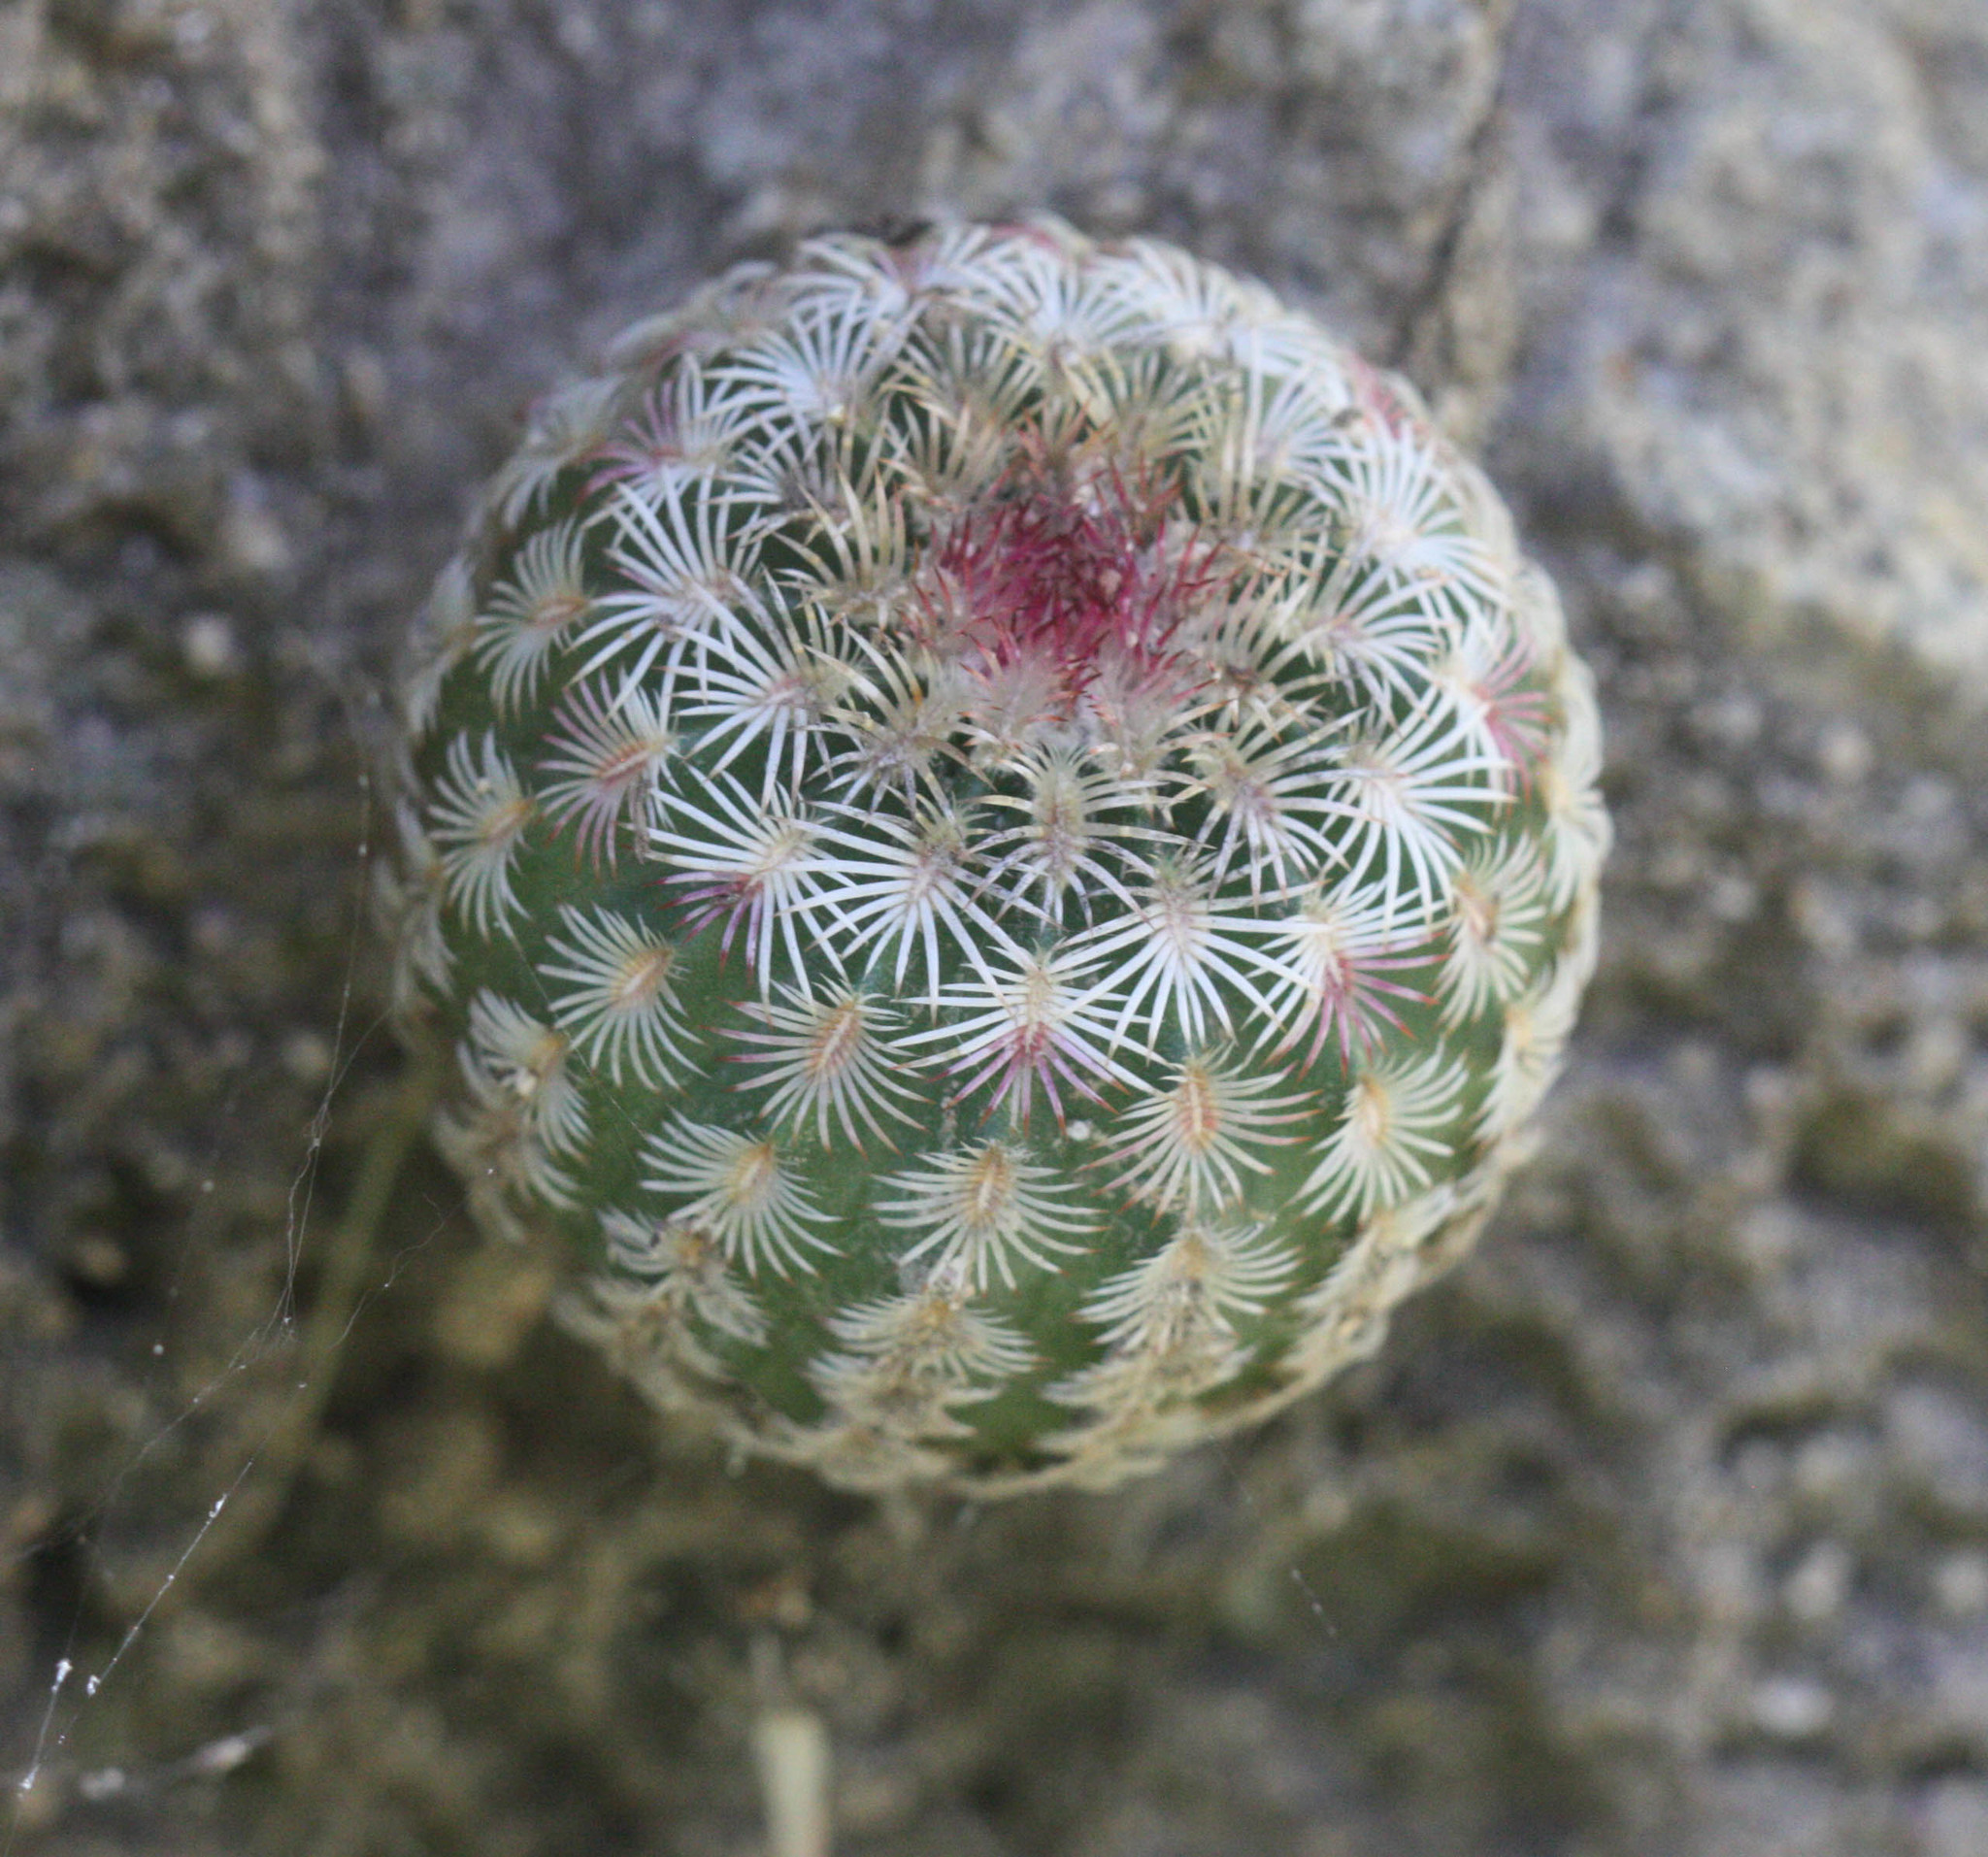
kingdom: Plantae
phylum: Tracheophyta
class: Magnoliopsida
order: Caryophyllales
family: Cactaceae
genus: Echinocereus
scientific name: Echinocereus rigidissimus
